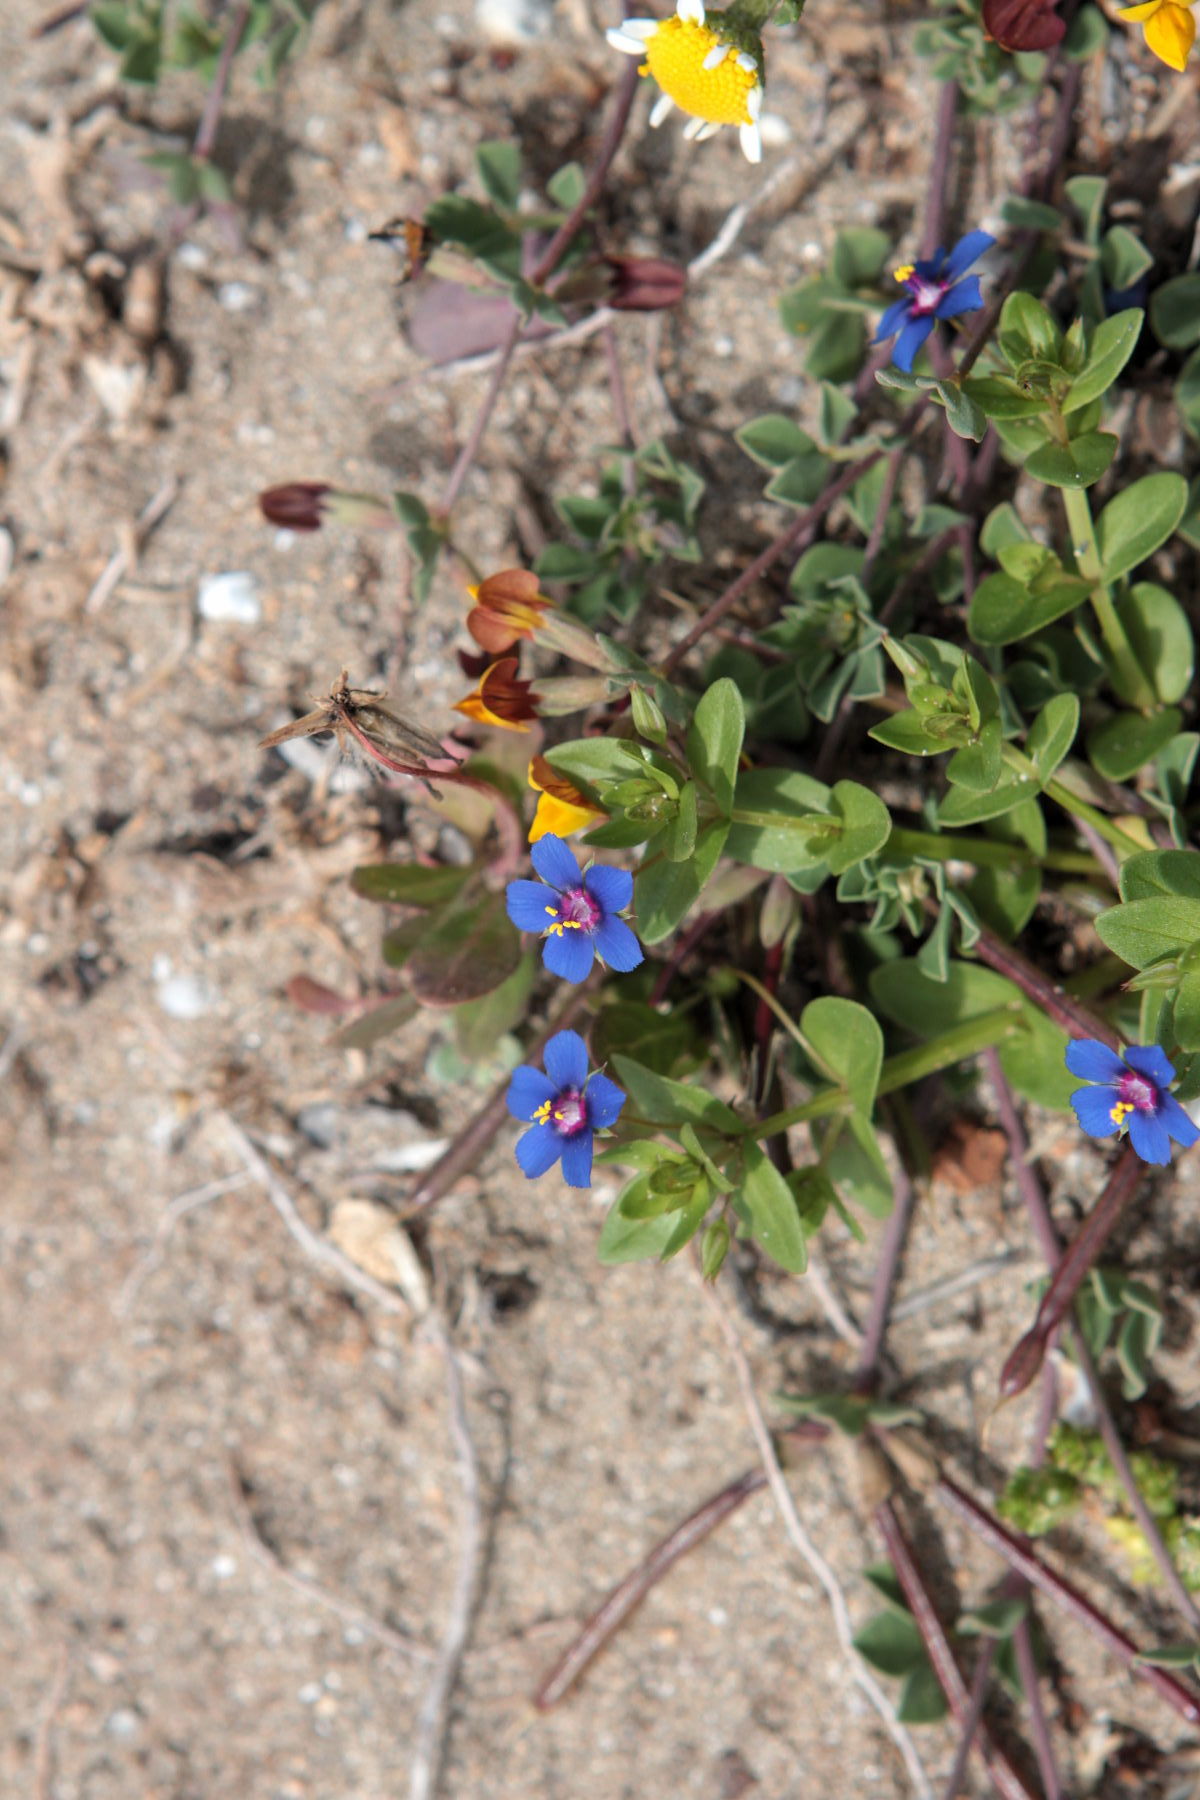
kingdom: Plantae
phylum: Tracheophyta
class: Magnoliopsida
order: Ericales
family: Primulaceae
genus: Lysimachia
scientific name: Lysimachia loeflingii
